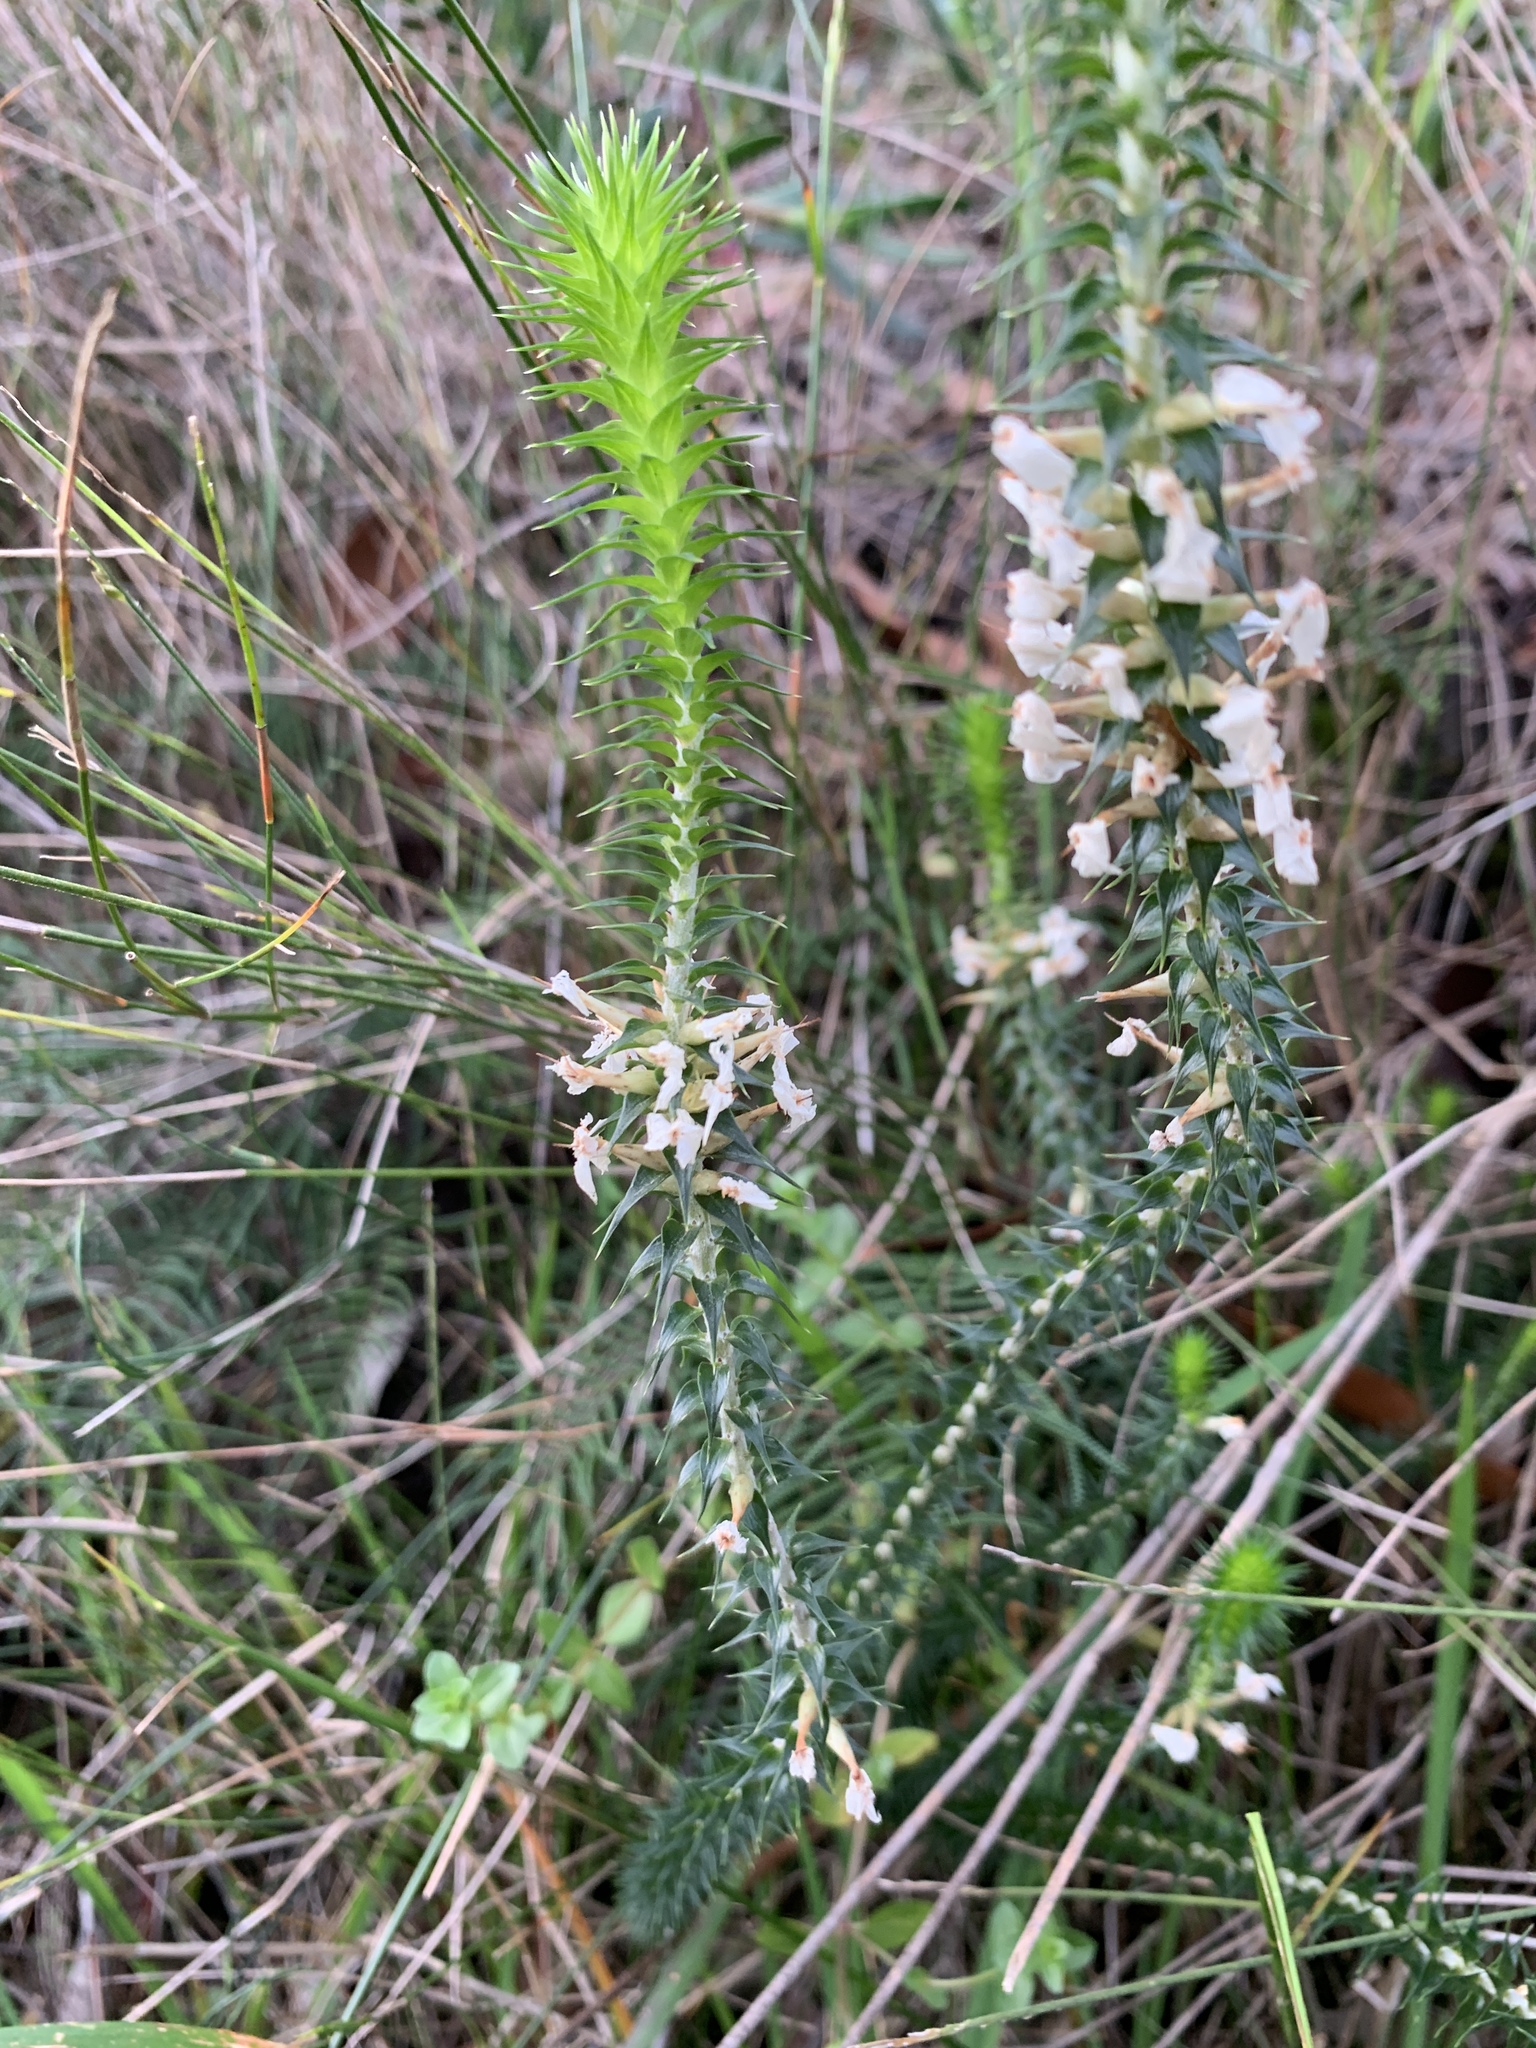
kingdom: Plantae
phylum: Tracheophyta
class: Magnoliopsida
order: Ericales
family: Ericaceae
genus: Woollsia
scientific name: Woollsia pungens
